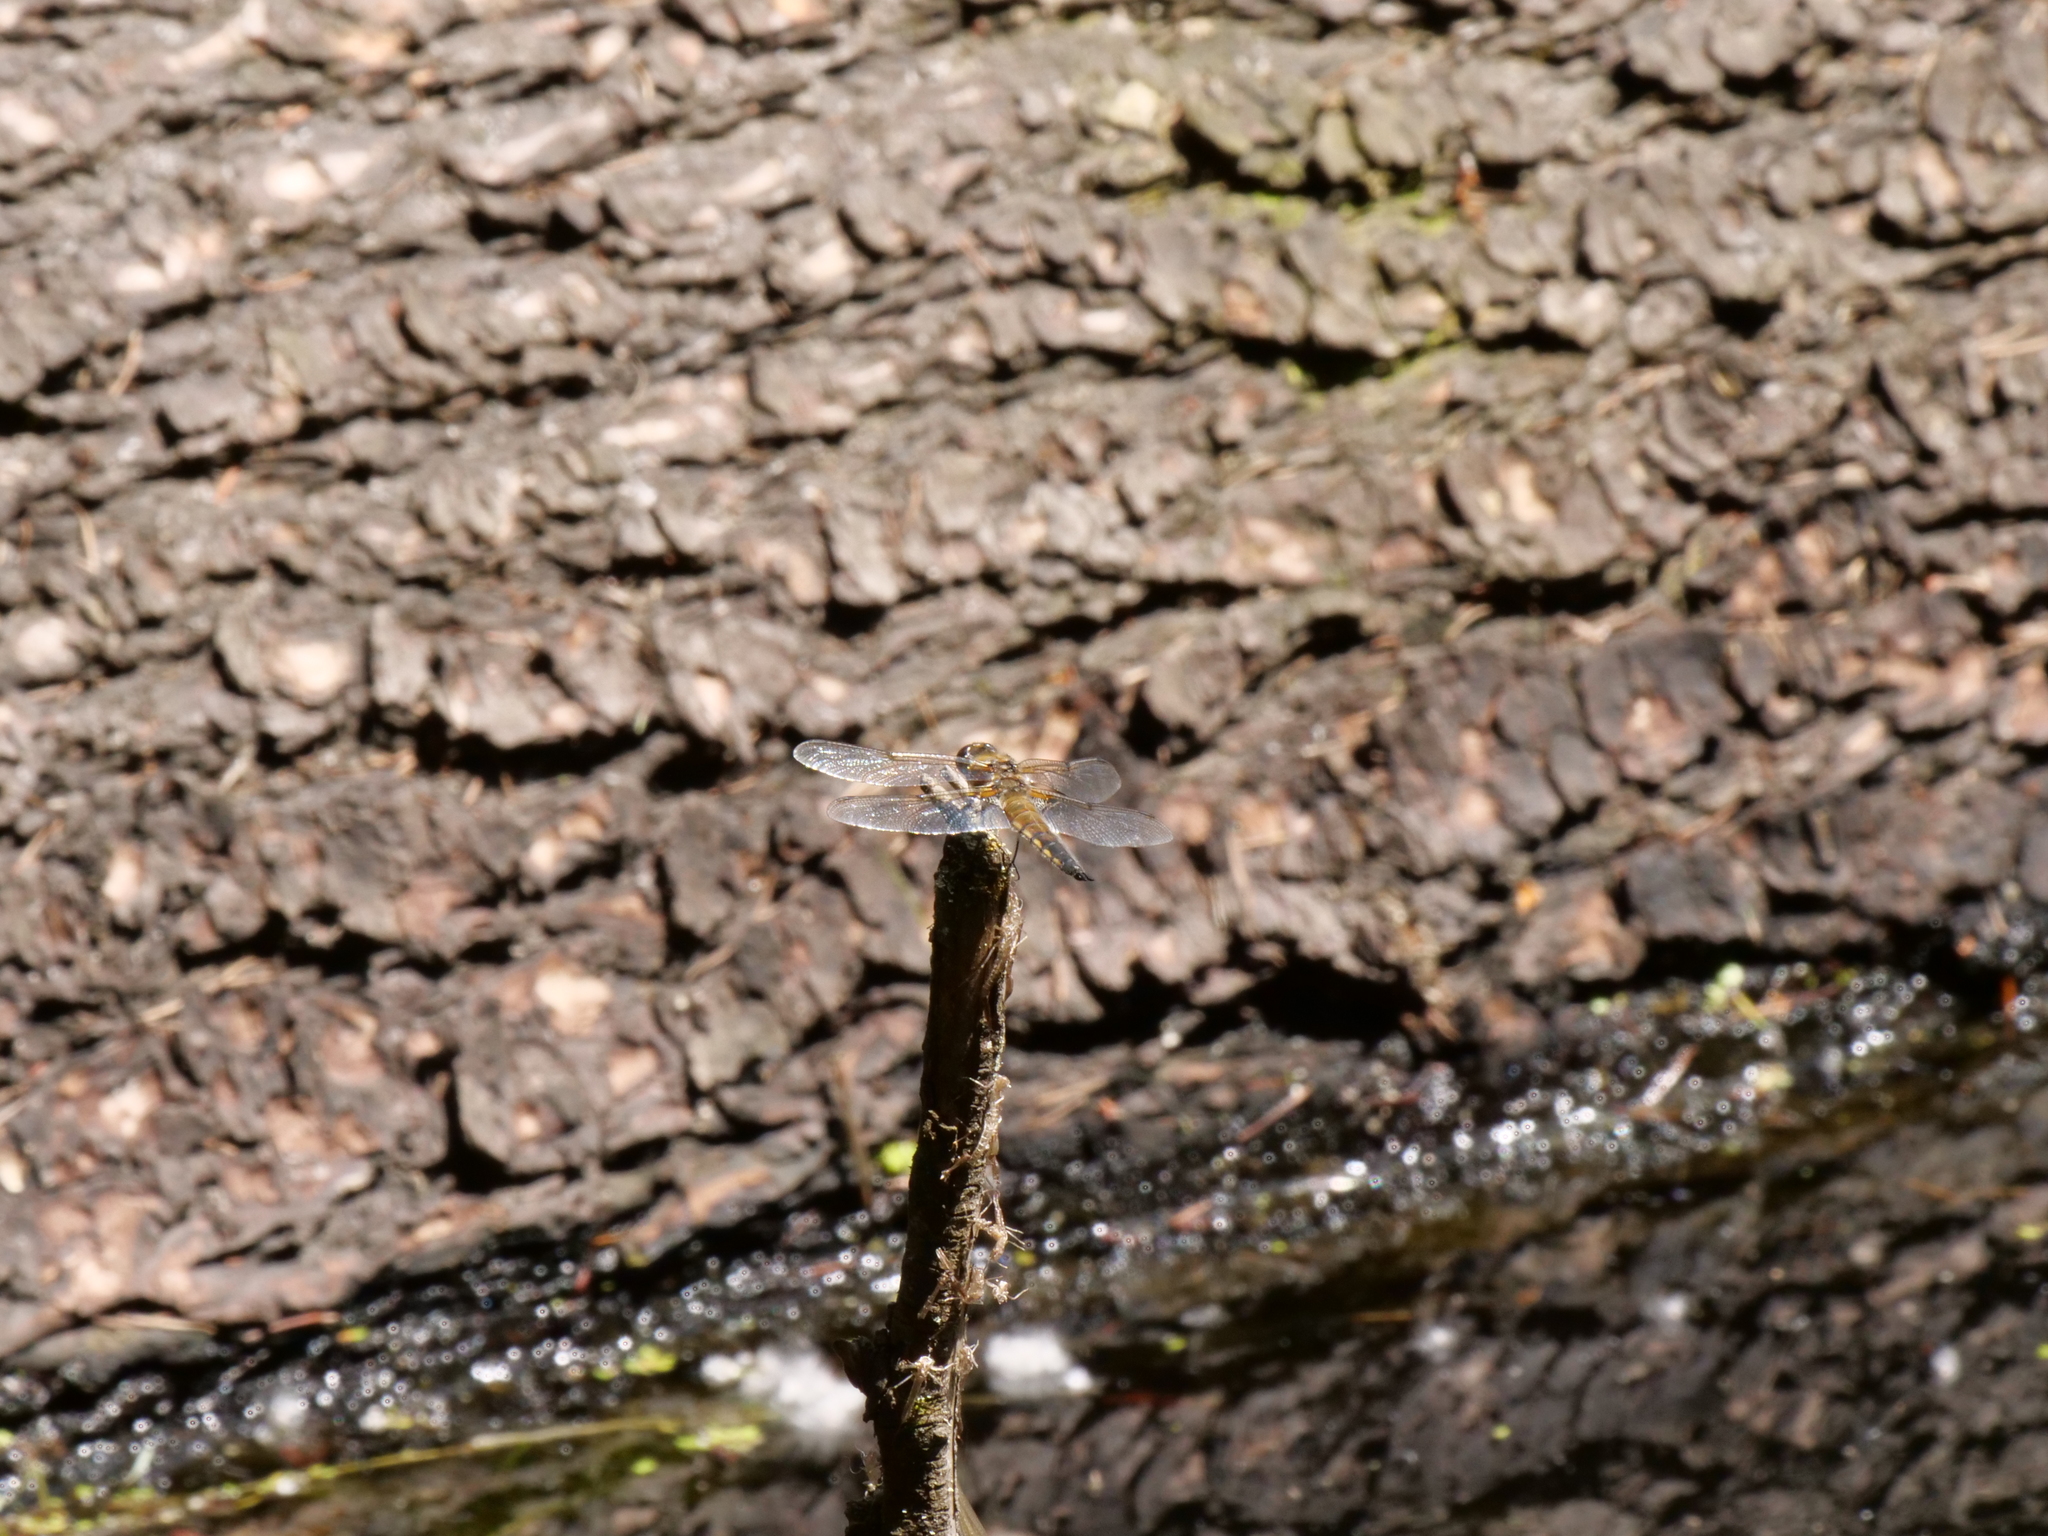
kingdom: Animalia
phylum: Arthropoda
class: Insecta
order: Odonata
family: Libellulidae
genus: Libellula
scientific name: Libellula quadrimaculata
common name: Four-spotted chaser
